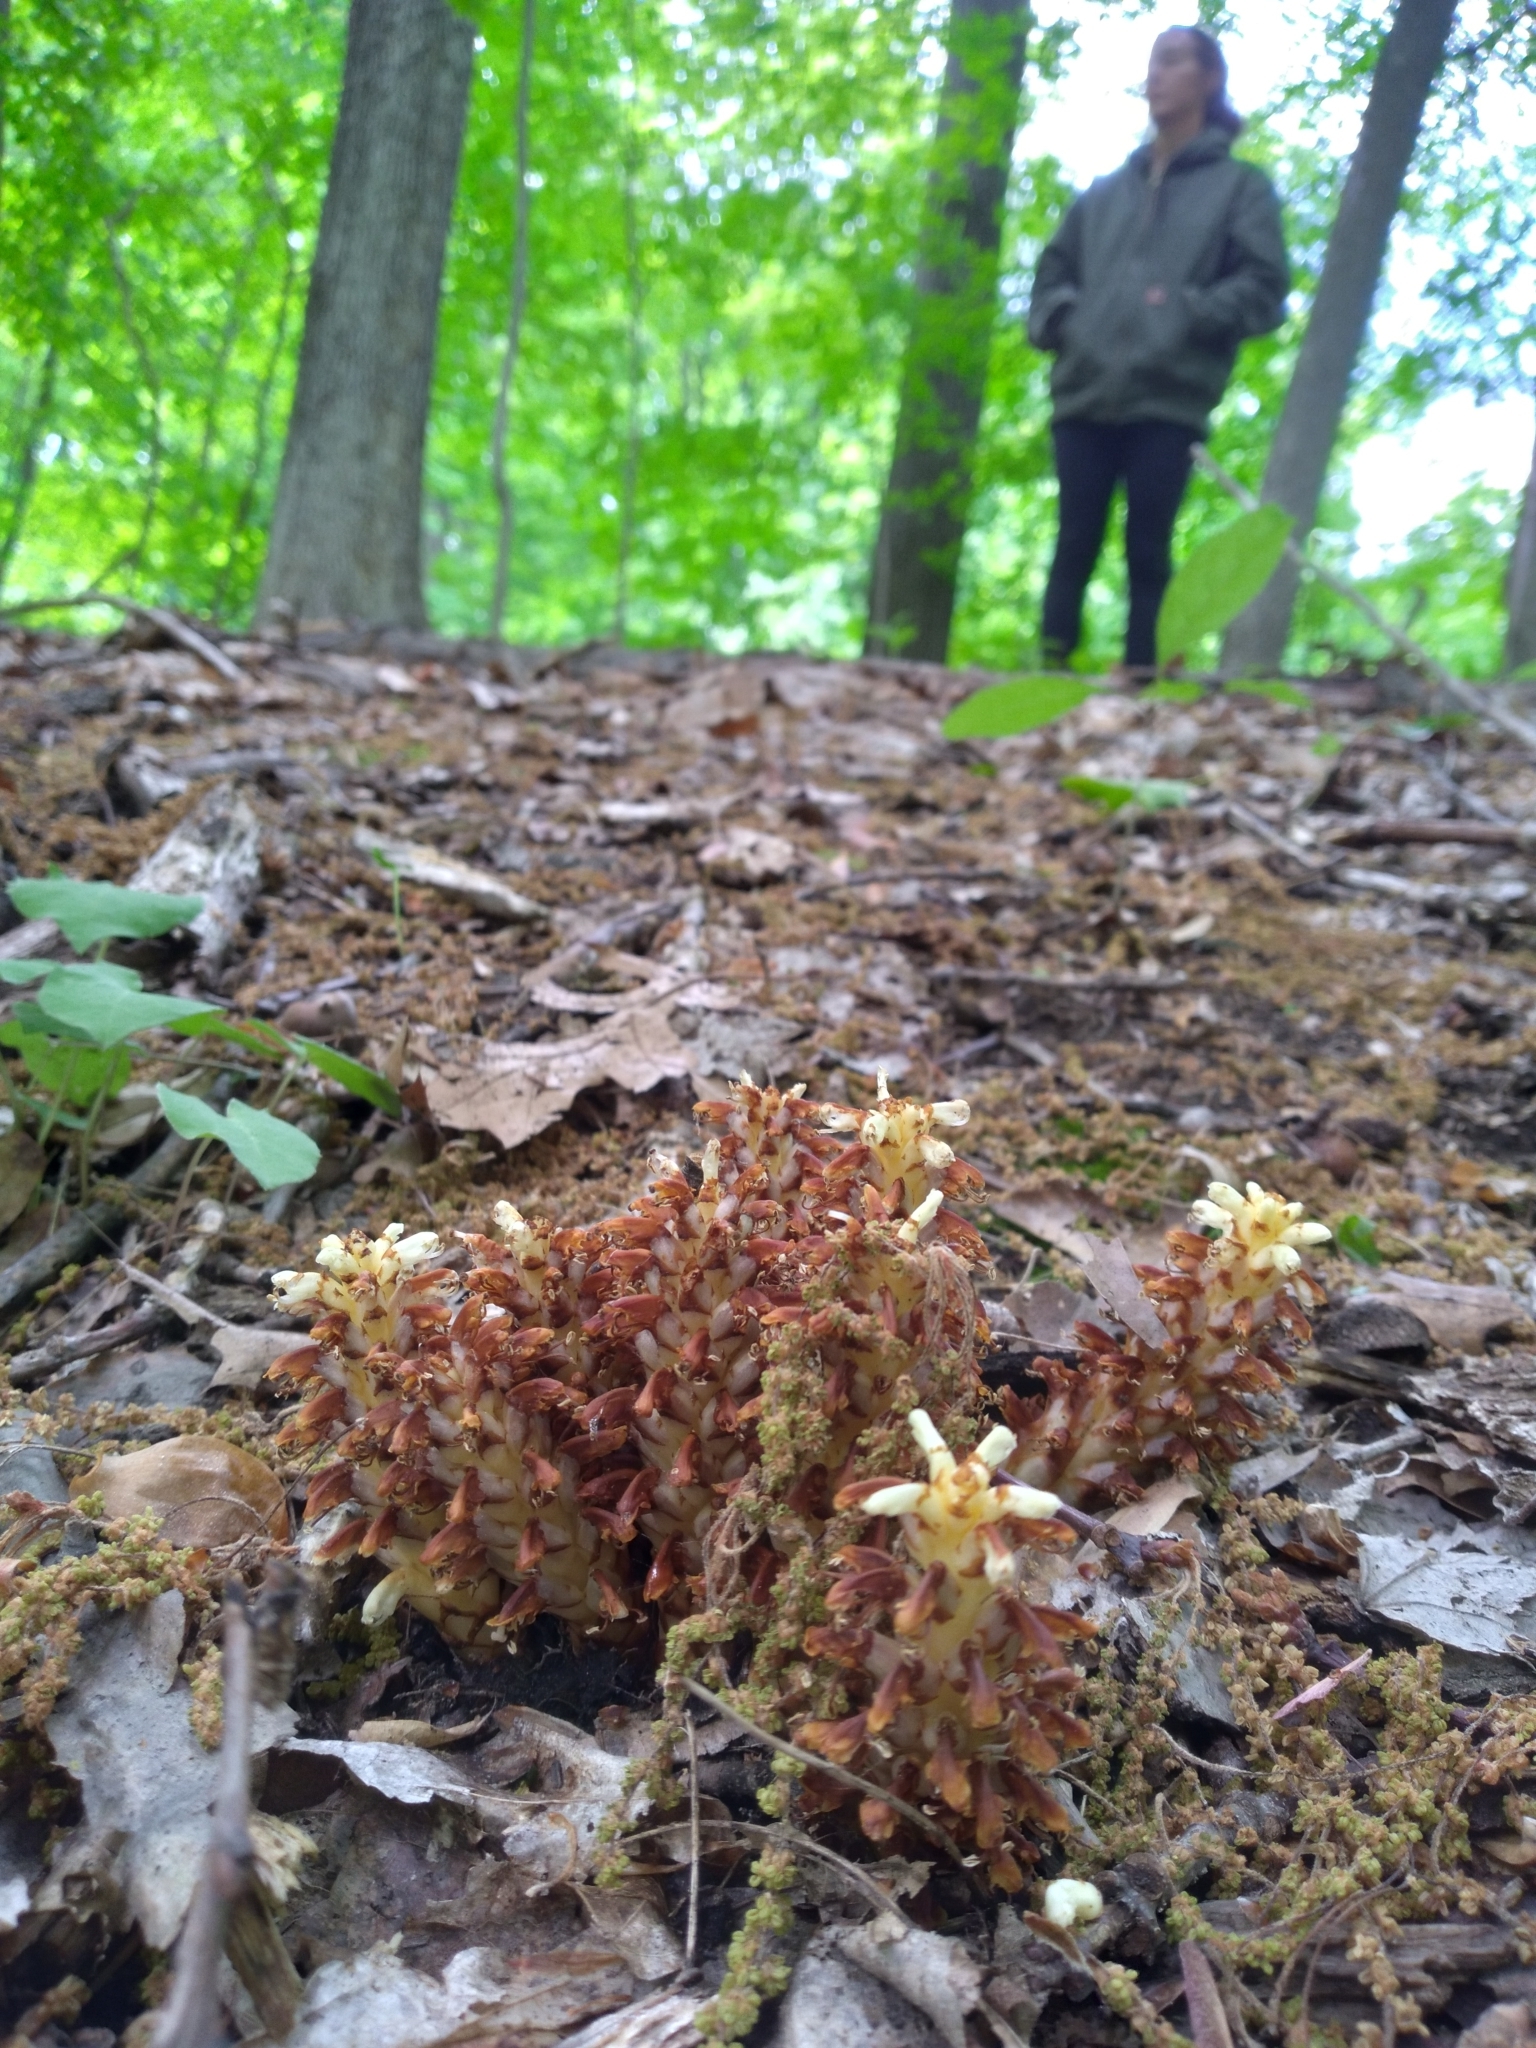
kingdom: Plantae
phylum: Tracheophyta
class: Magnoliopsida
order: Lamiales
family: Orobanchaceae
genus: Conopholis
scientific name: Conopholis americana
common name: American cancer-root
